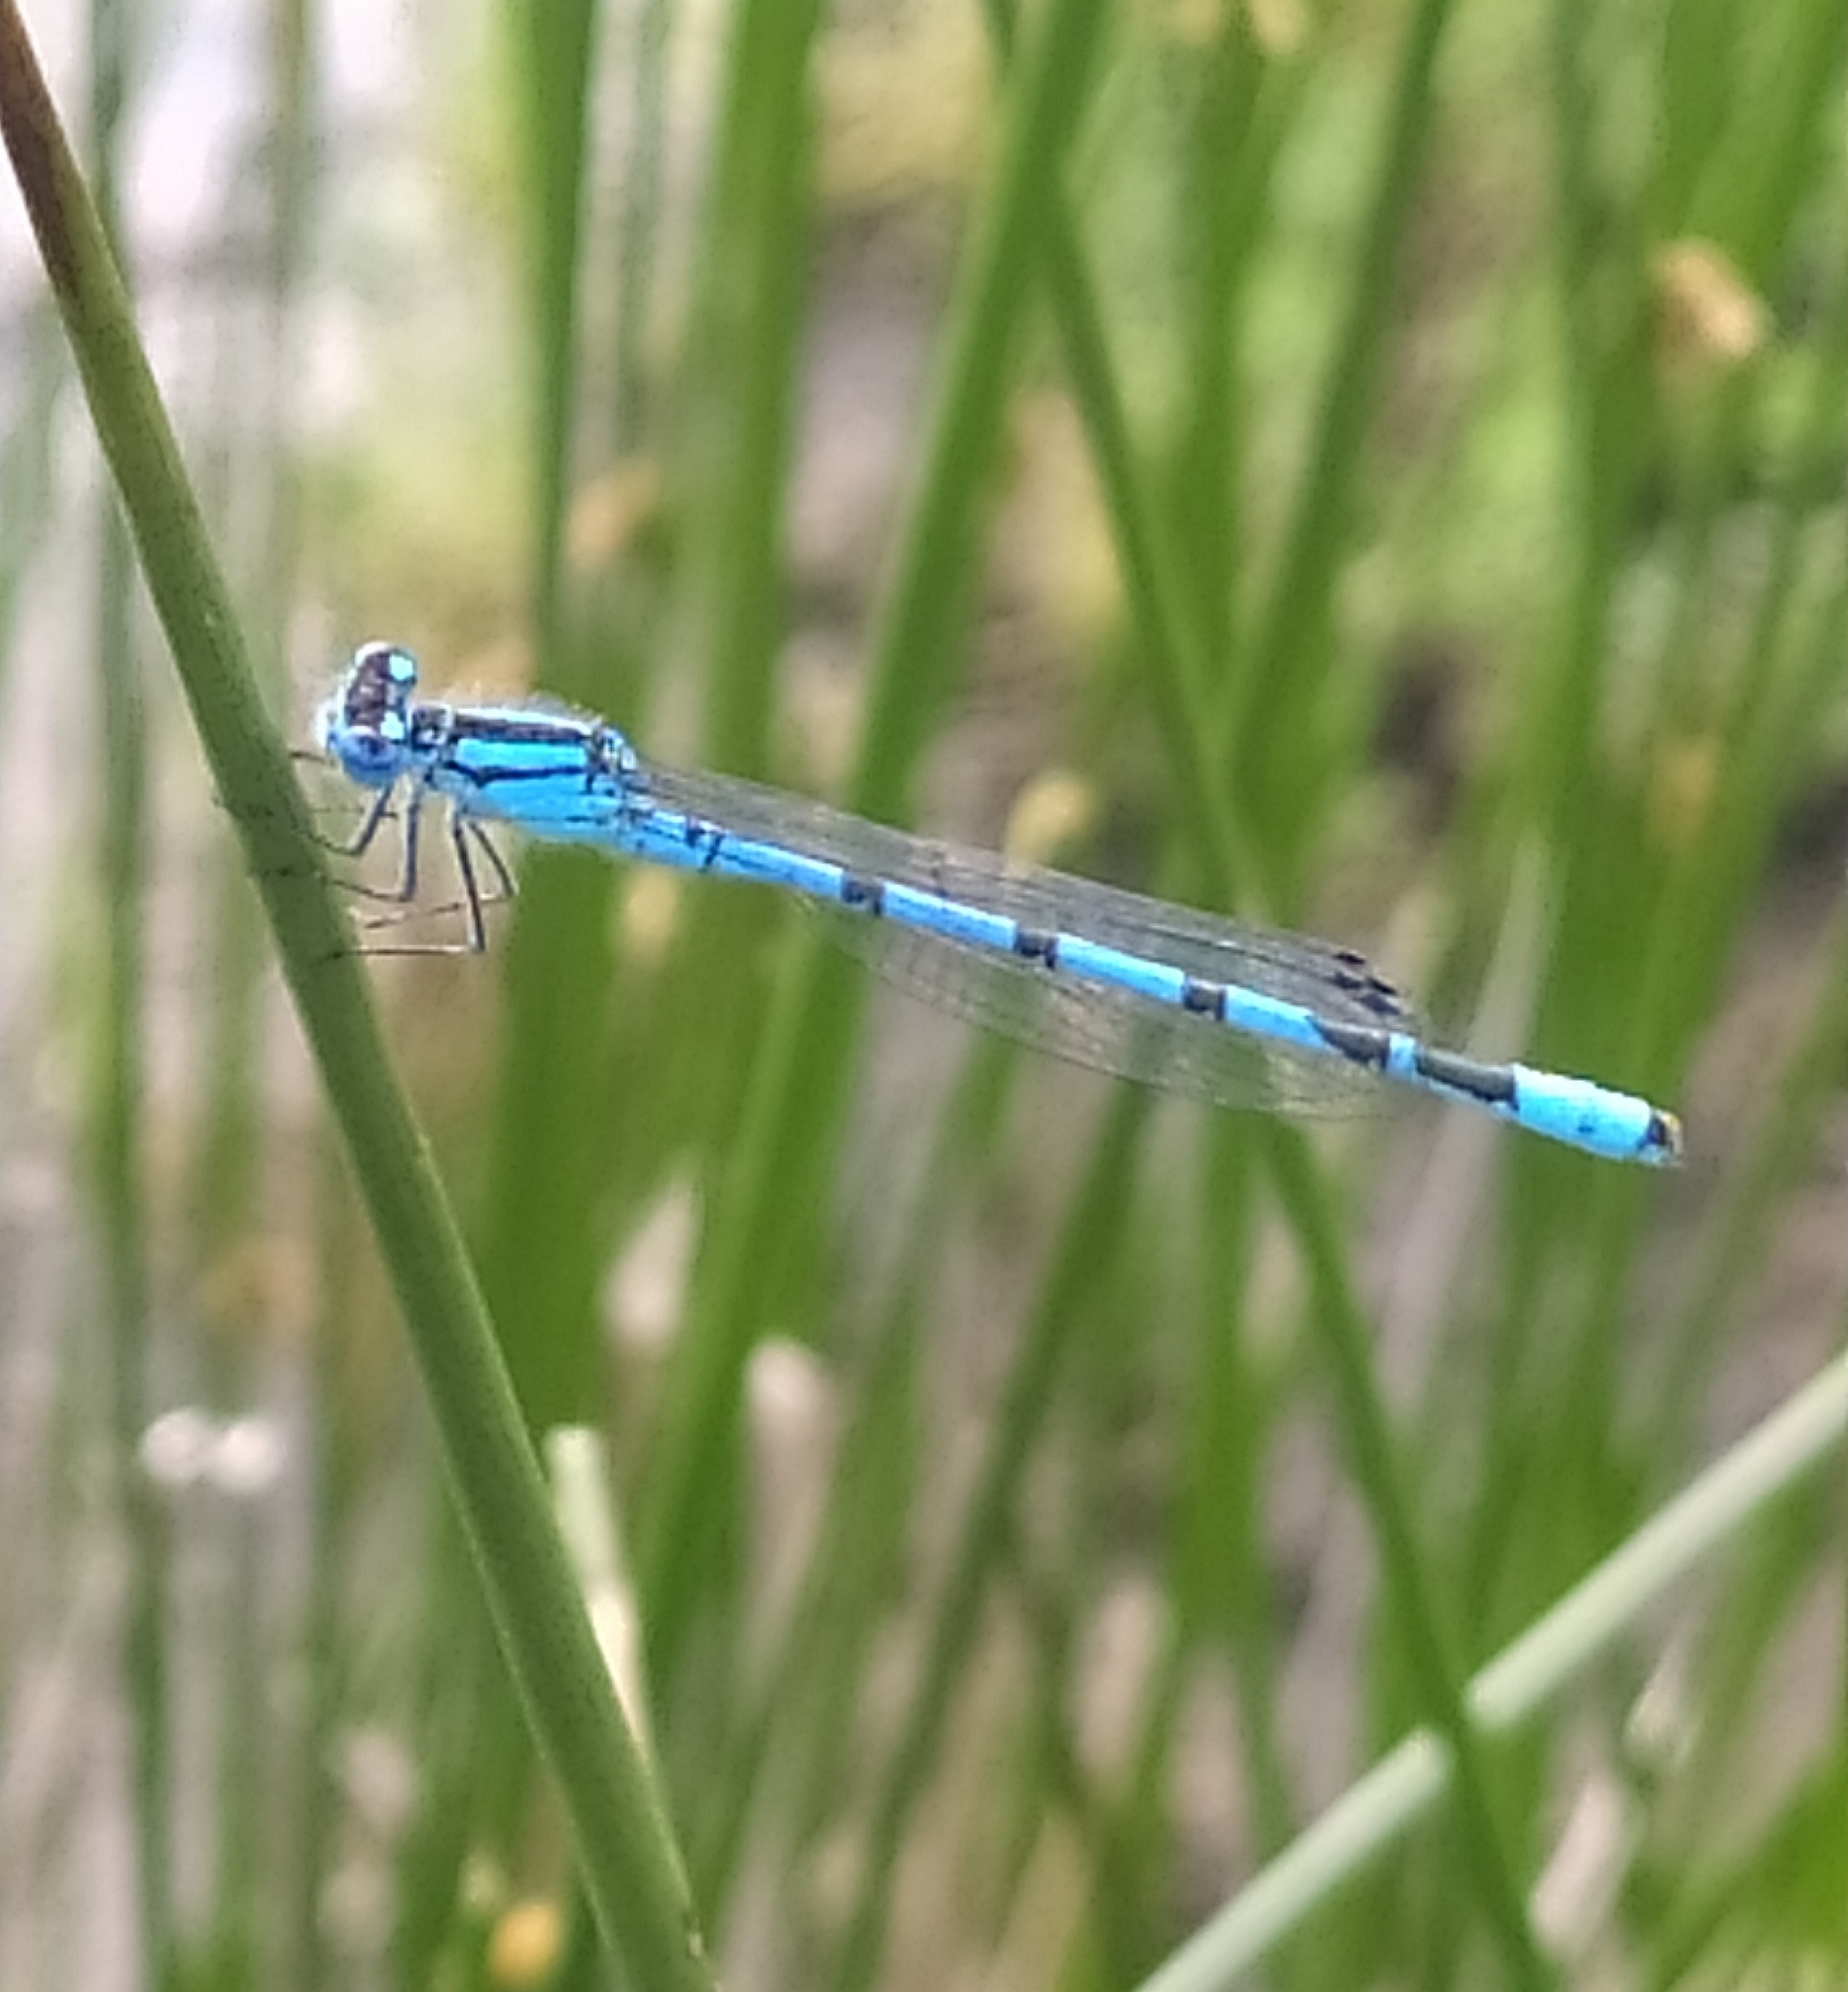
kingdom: Animalia
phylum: Arthropoda
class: Insecta
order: Odonata
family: Coenagrionidae
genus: Enallagma
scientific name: Enallagma cyathigerum
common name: Common blue damselfly
